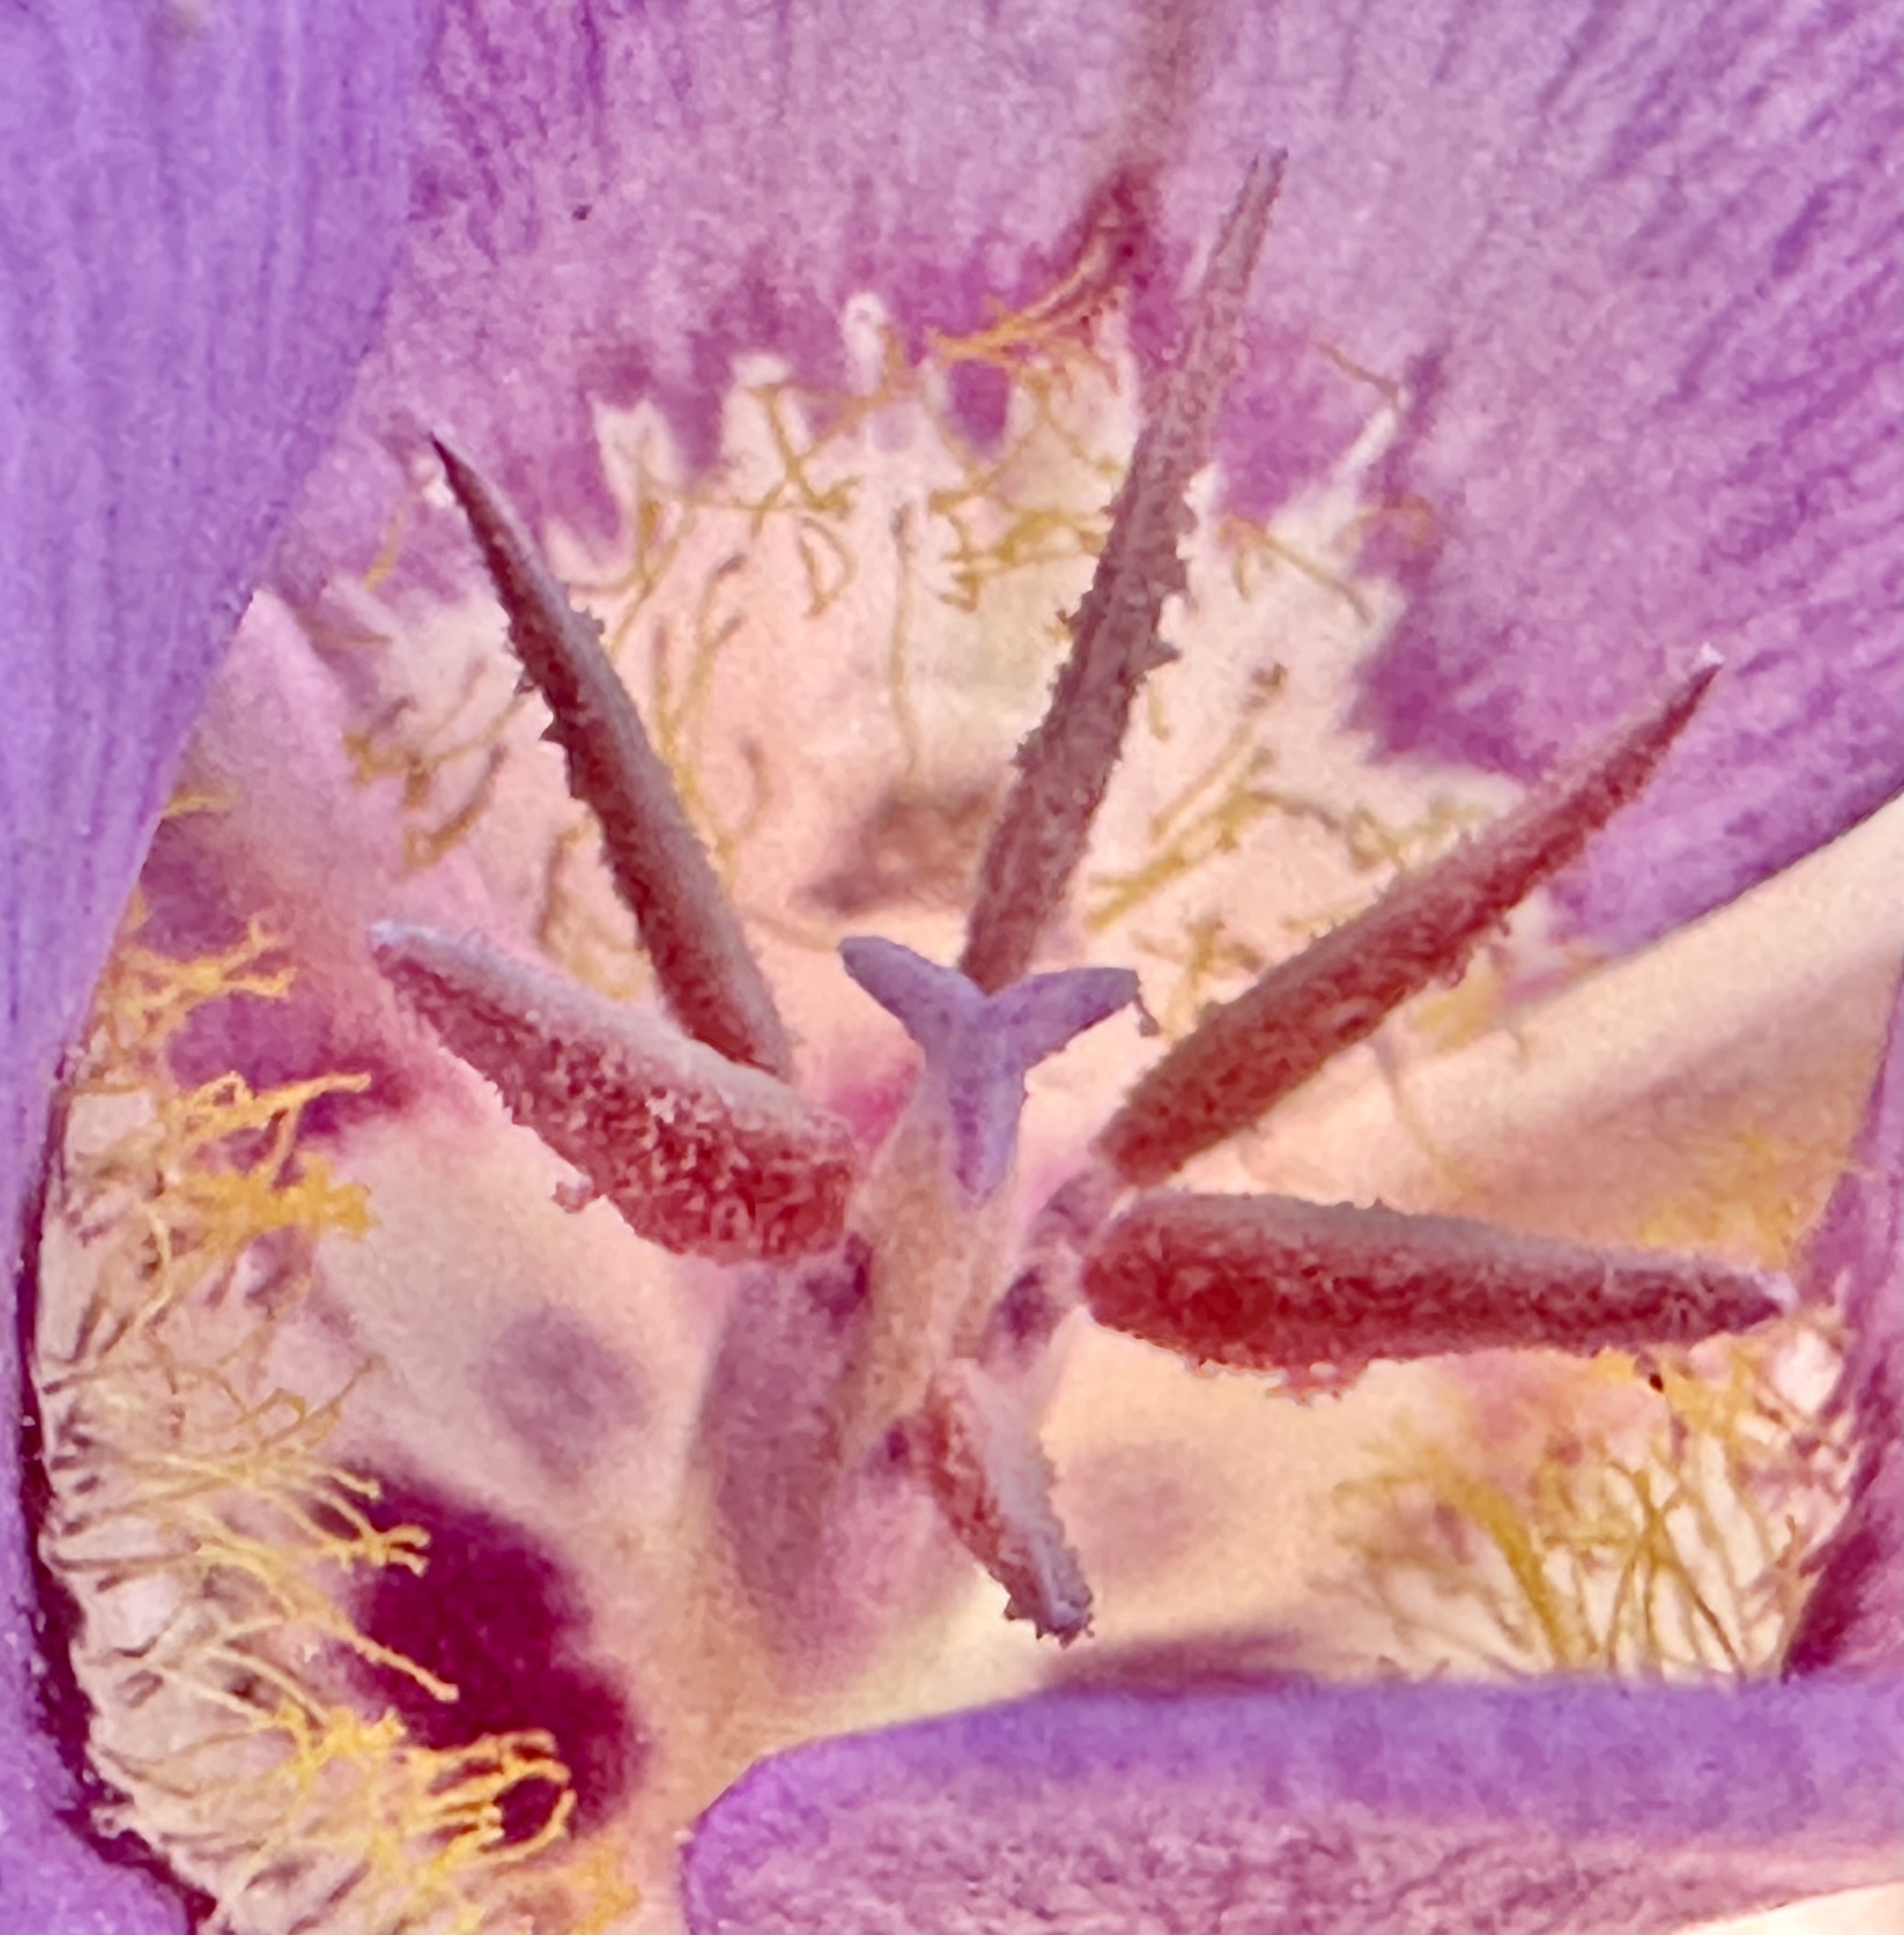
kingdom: Plantae
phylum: Tracheophyta
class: Liliopsida
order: Liliales
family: Liliaceae
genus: Calochortus
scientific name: Calochortus macrocarpus
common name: Green-band mariposa lily
